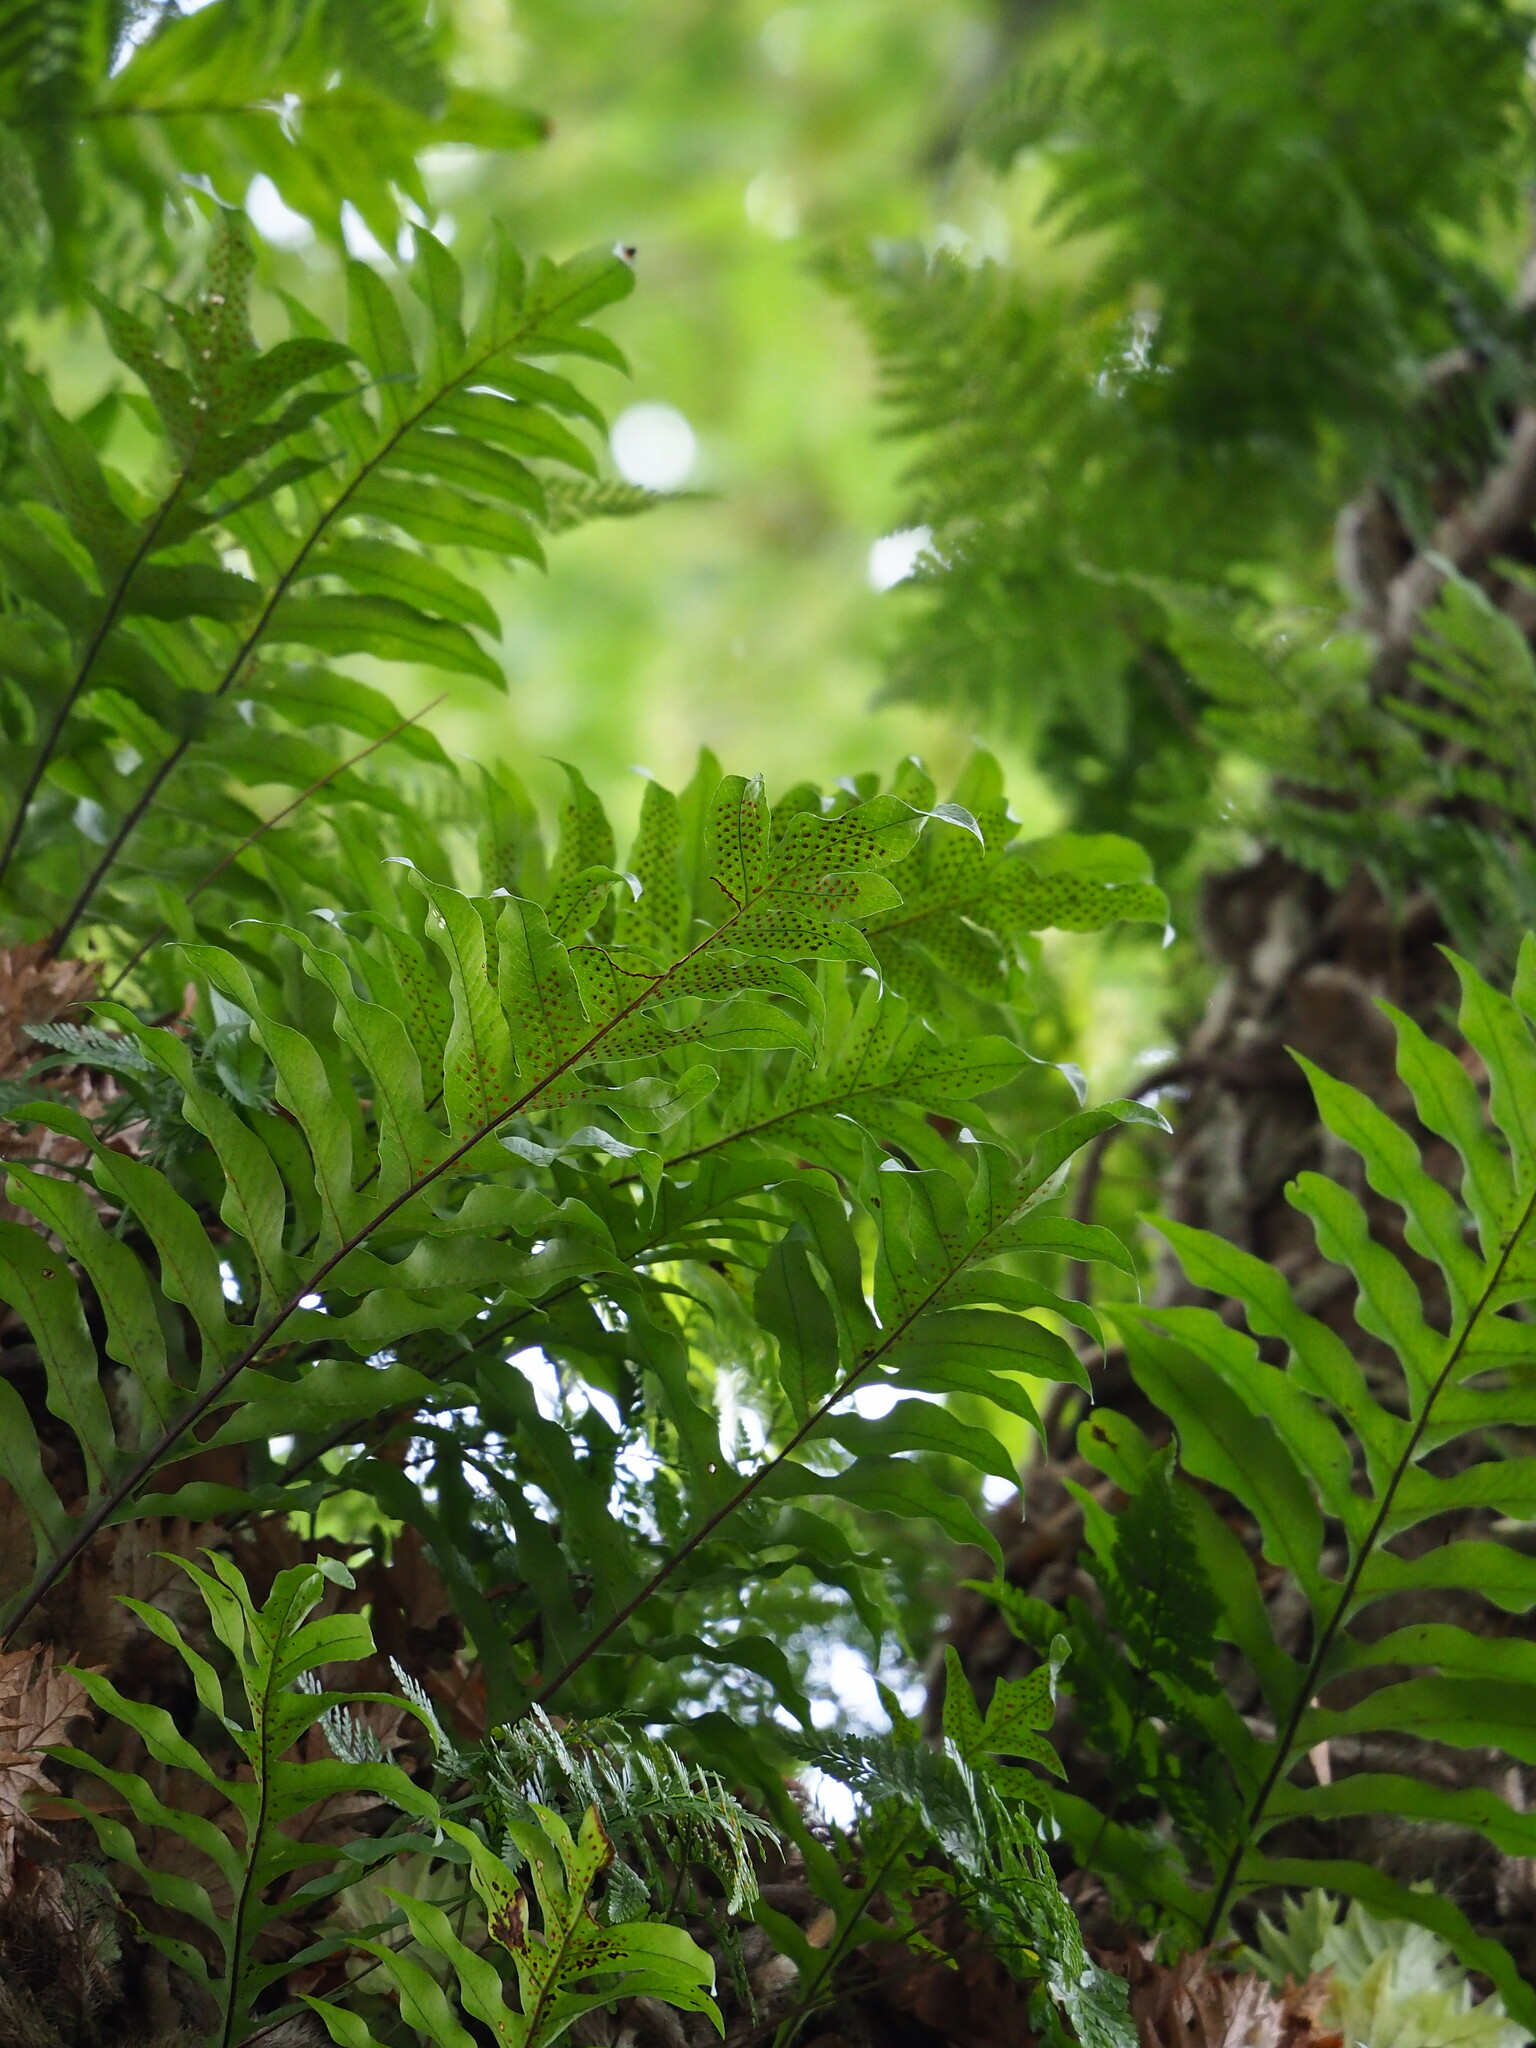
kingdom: Plantae
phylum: Tracheophyta
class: Polypodiopsida
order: Polypodiales
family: Polypodiaceae
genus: Drynaria
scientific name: Drynaria roosii
